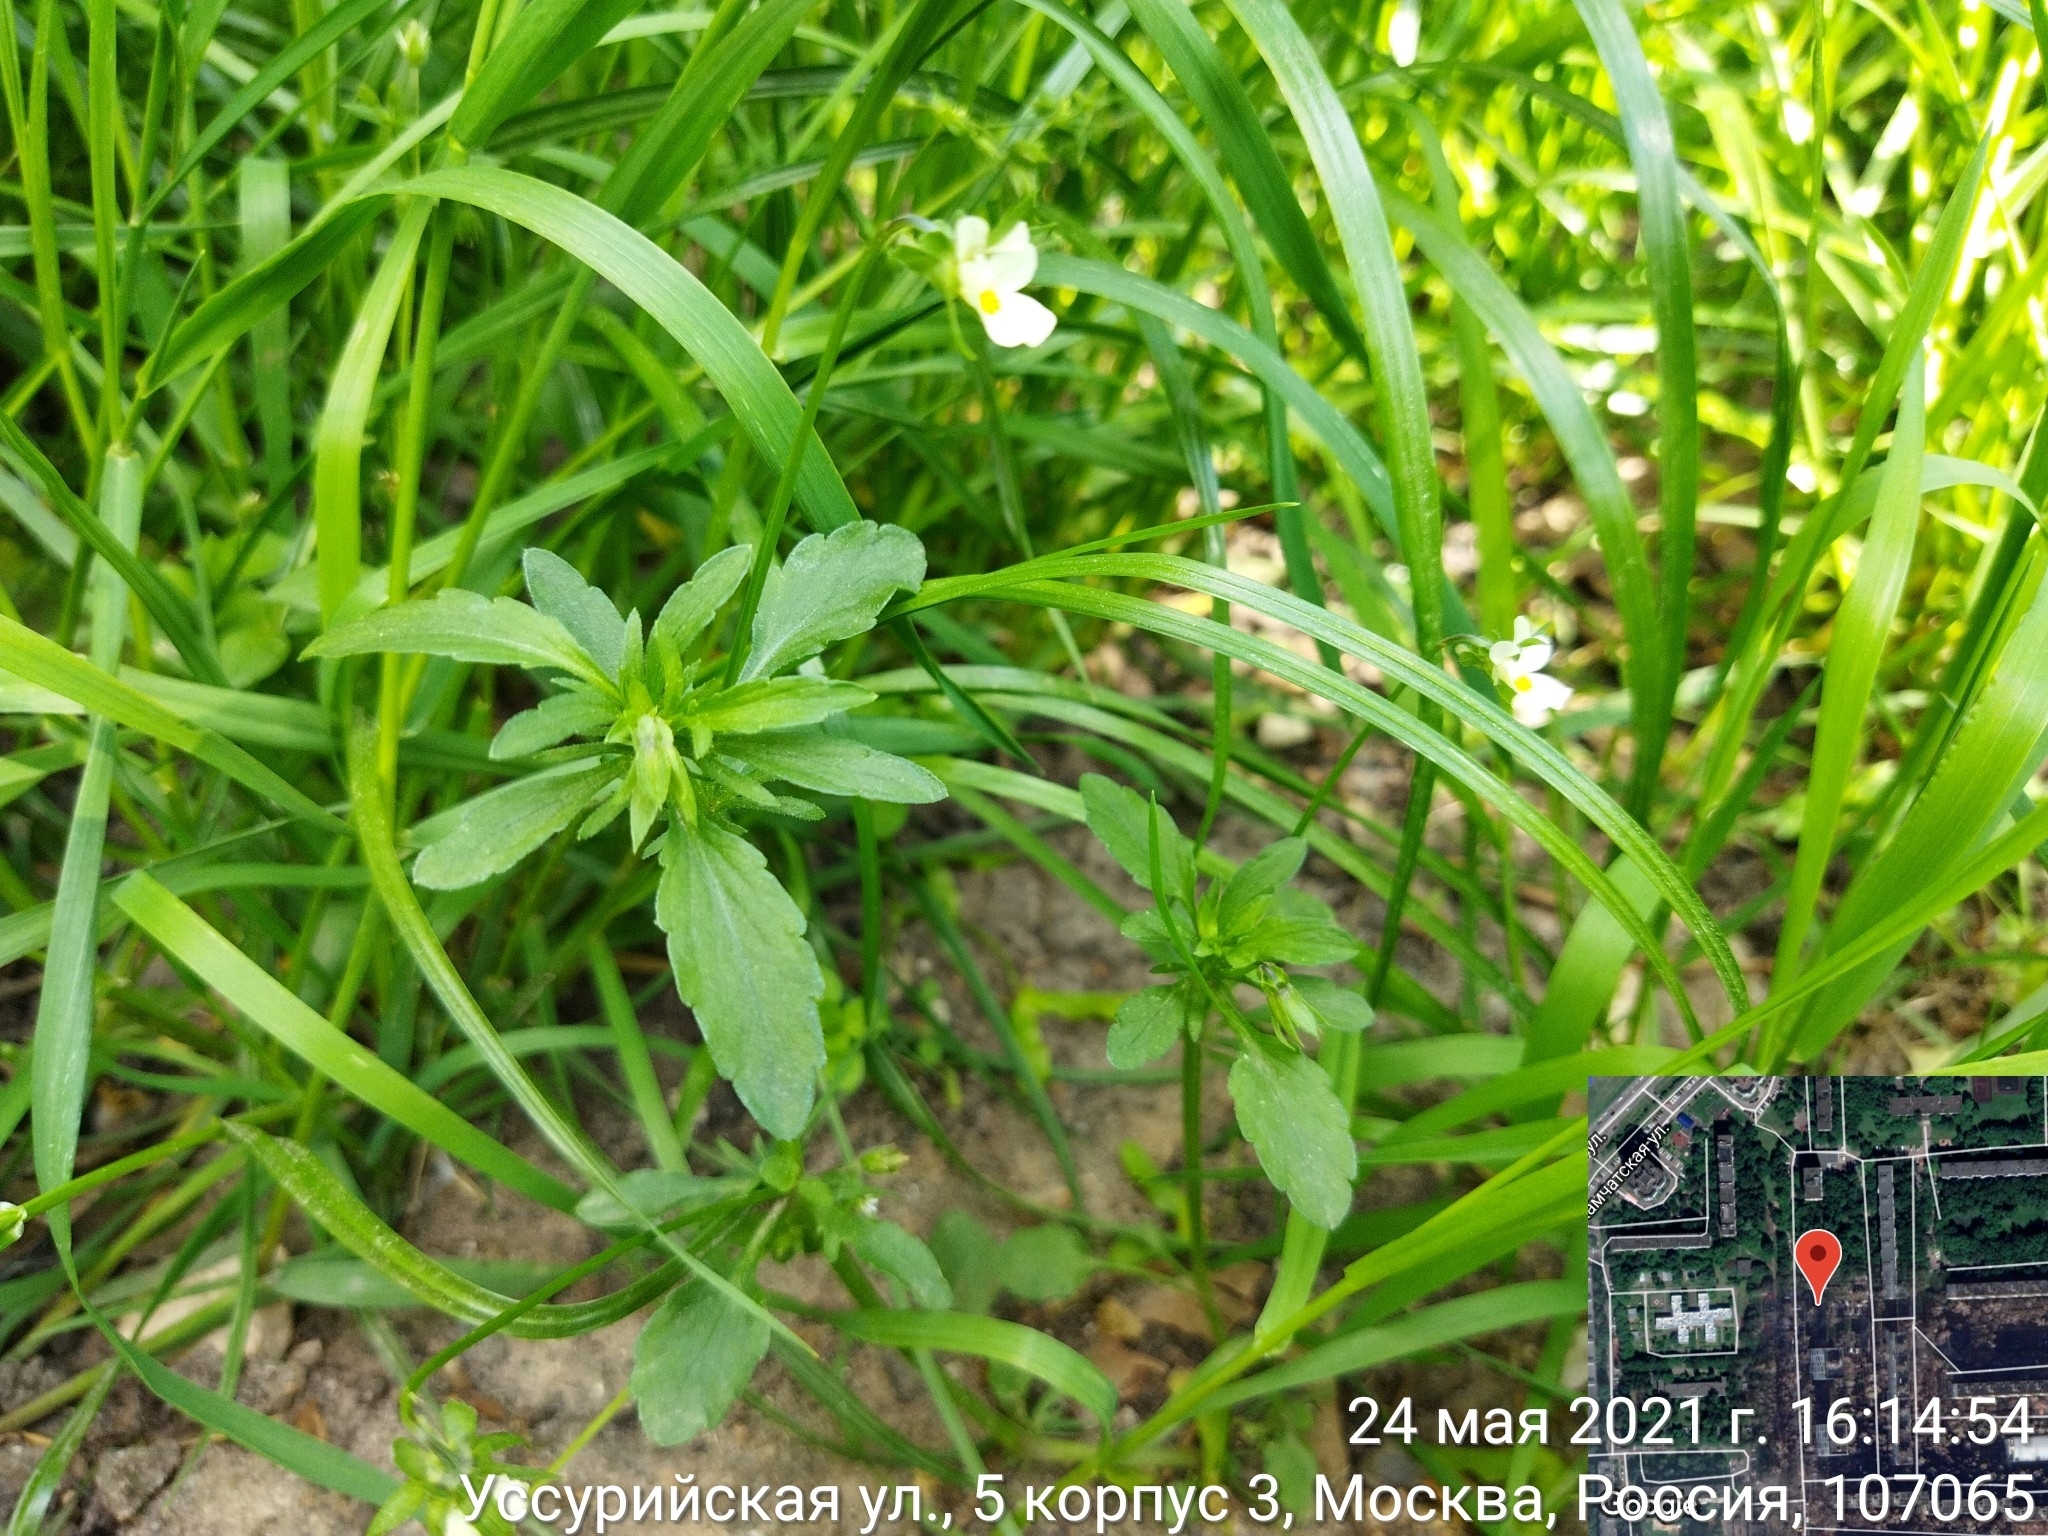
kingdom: Plantae
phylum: Tracheophyta
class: Magnoliopsida
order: Malpighiales
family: Violaceae
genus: Viola
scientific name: Viola arvensis
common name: Field pansy
